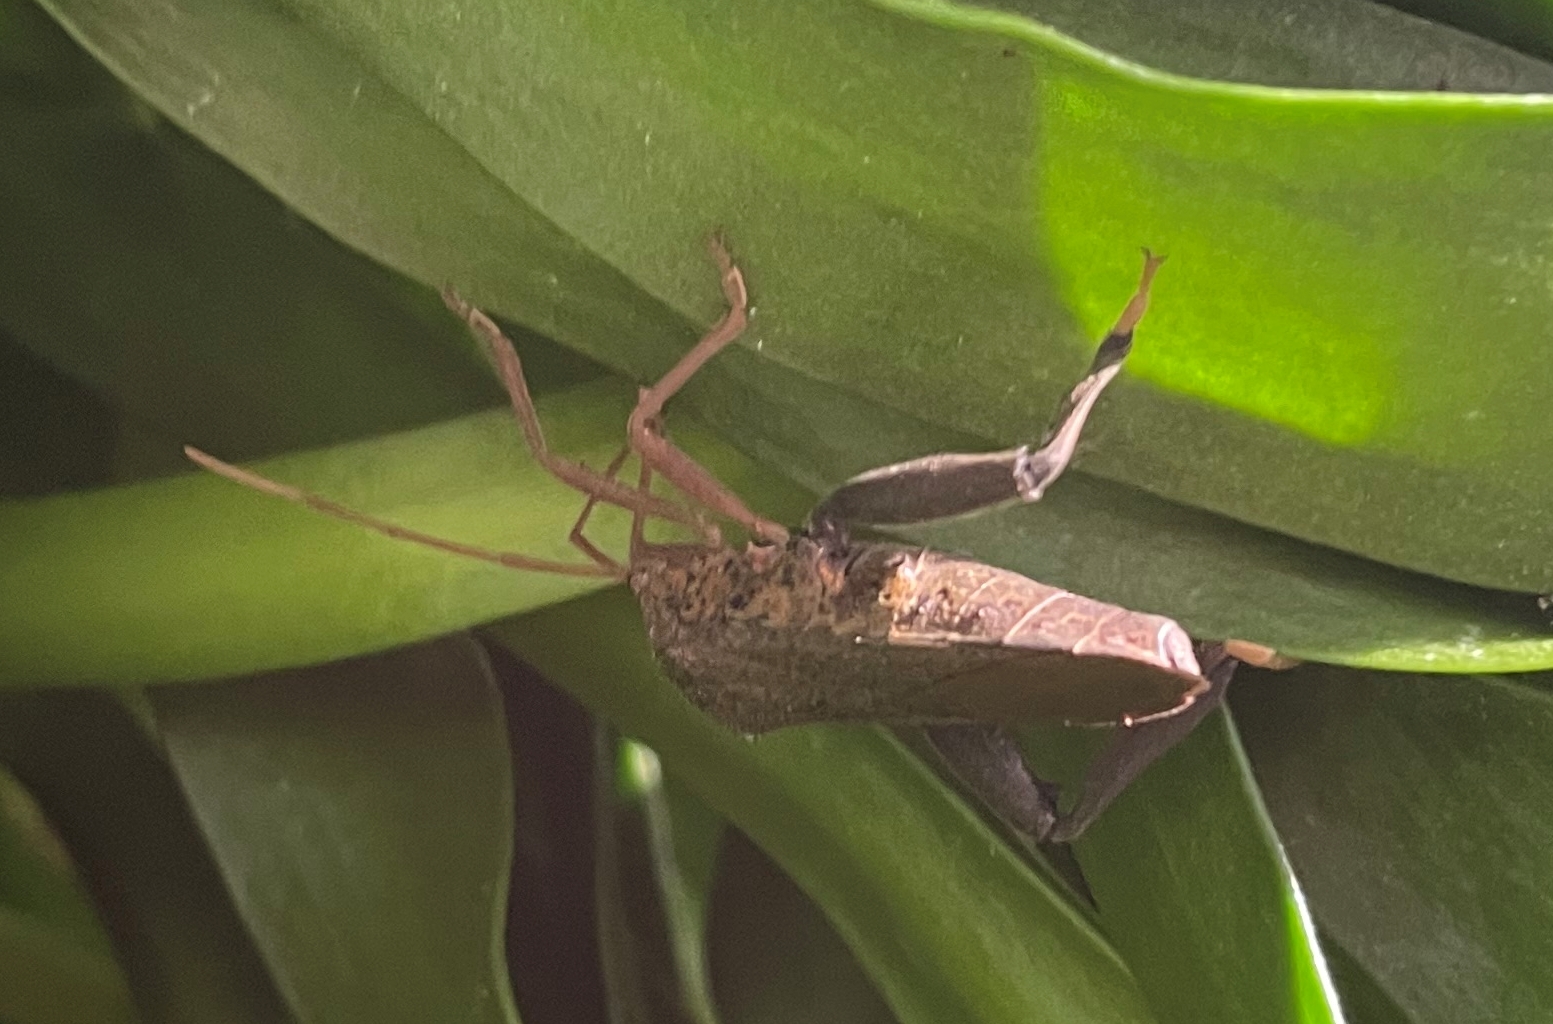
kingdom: Animalia
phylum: Arthropoda
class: Insecta
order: Hemiptera
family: Coreidae
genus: Pternistria
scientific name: Pternistria bispina
